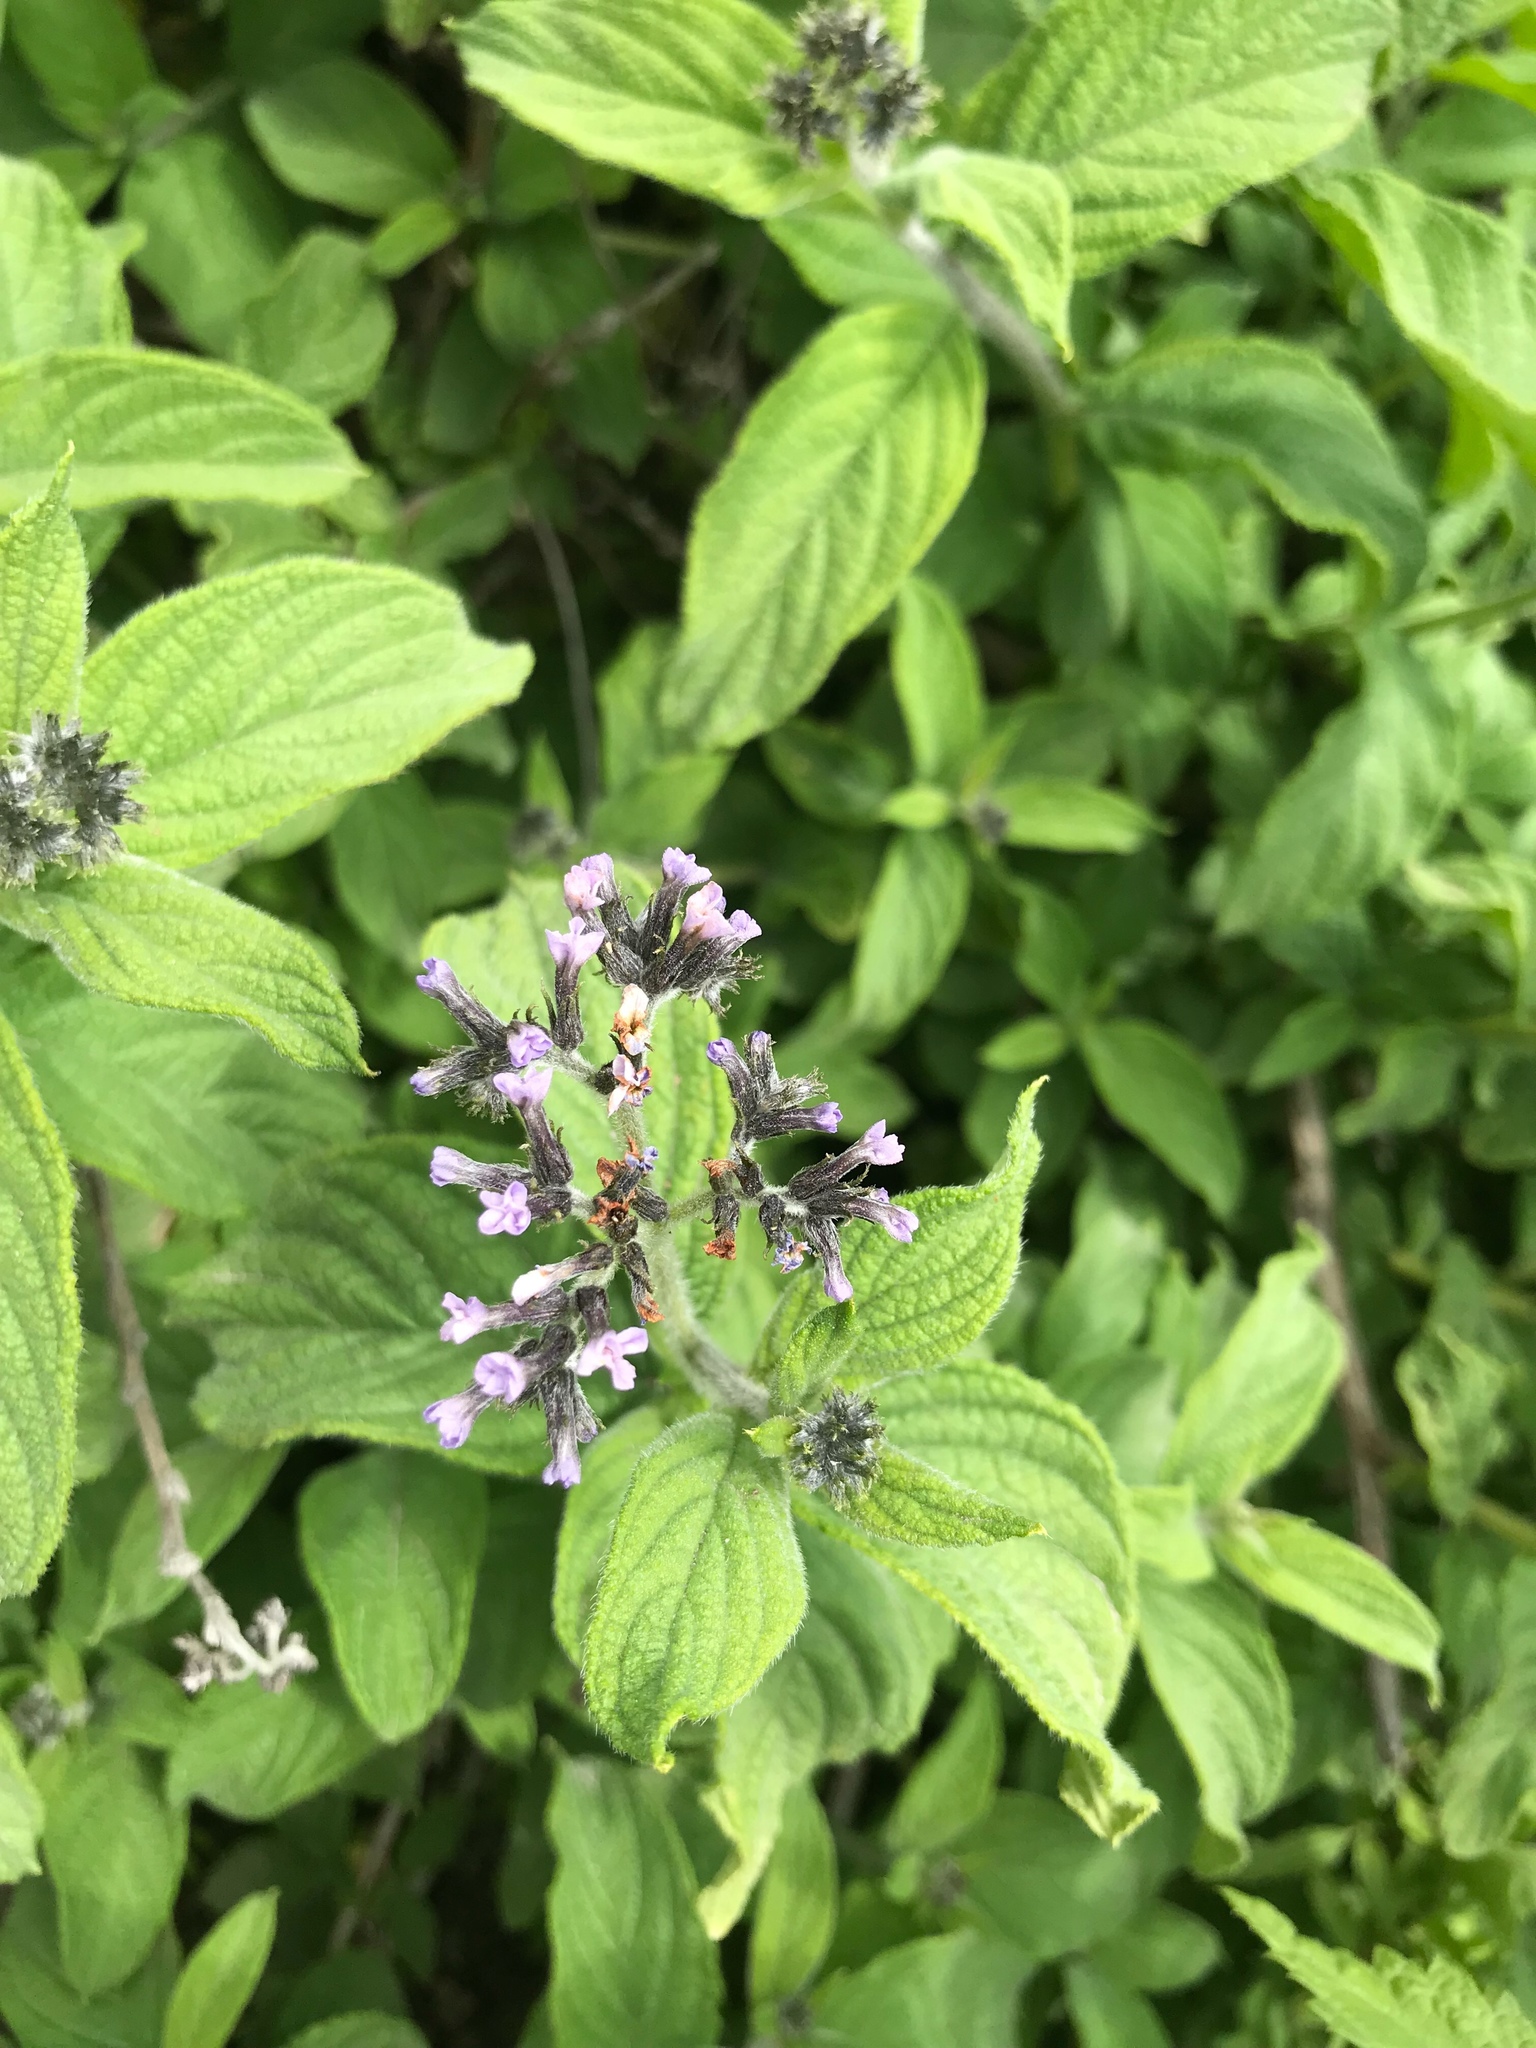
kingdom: Plantae
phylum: Tracheophyta
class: Magnoliopsida
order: Boraginales
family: Heliotropiaceae
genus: Heliotropium
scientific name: Heliotropium arborescens
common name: Cherry-pie
